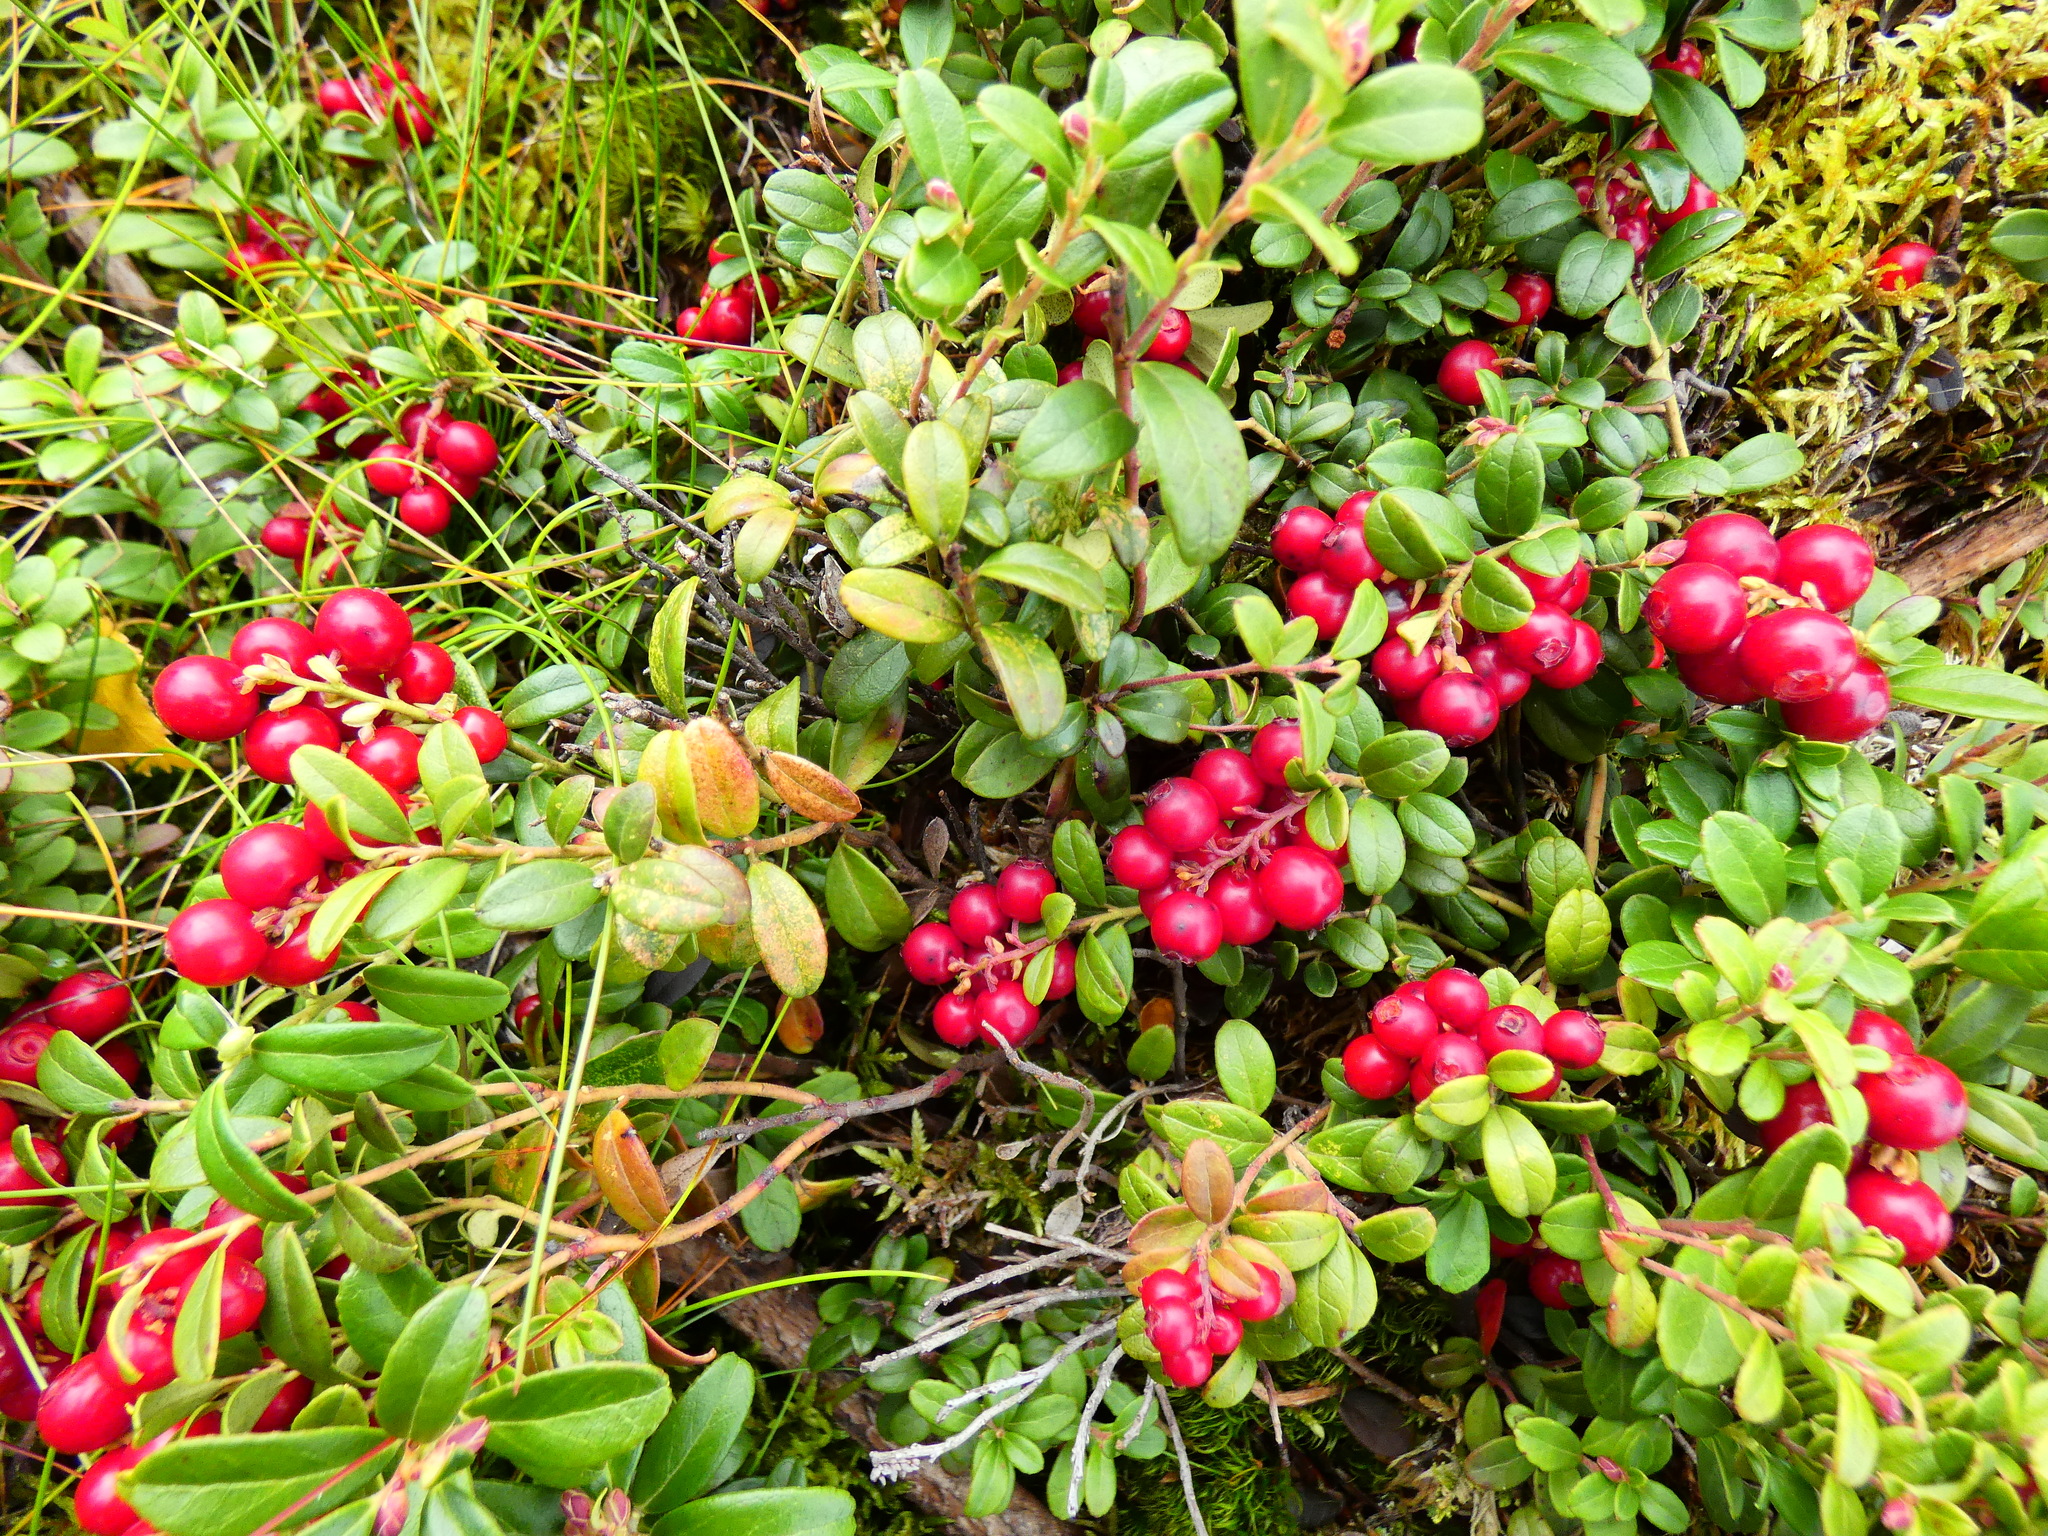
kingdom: Plantae
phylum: Tracheophyta
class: Magnoliopsida
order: Ericales
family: Ericaceae
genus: Vaccinium
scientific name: Vaccinium vitis-idaea
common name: Cowberry
